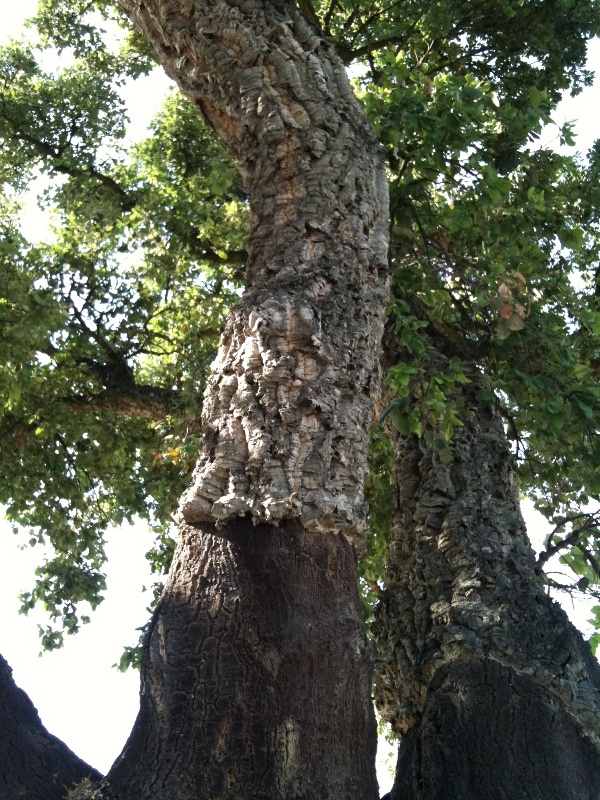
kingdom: Plantae
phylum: Tracheophyta
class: Magnoliopsida
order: Fagales
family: Fagaceae
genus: Quercus
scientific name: Quercus suber
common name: Cork oak
